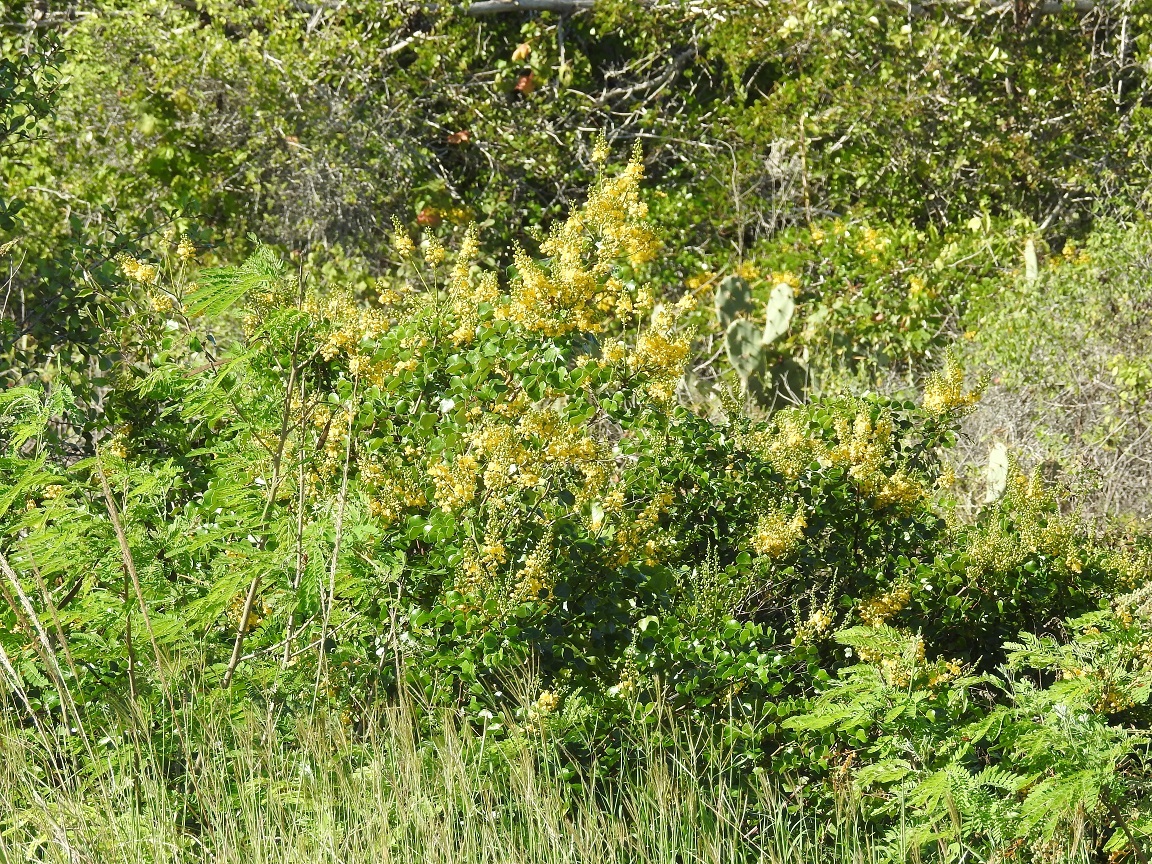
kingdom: Plantae
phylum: Tracheophyta
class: Magnoliopsida
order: Fabales
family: Fabaceae
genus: Tara
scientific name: Tara vesicaria
